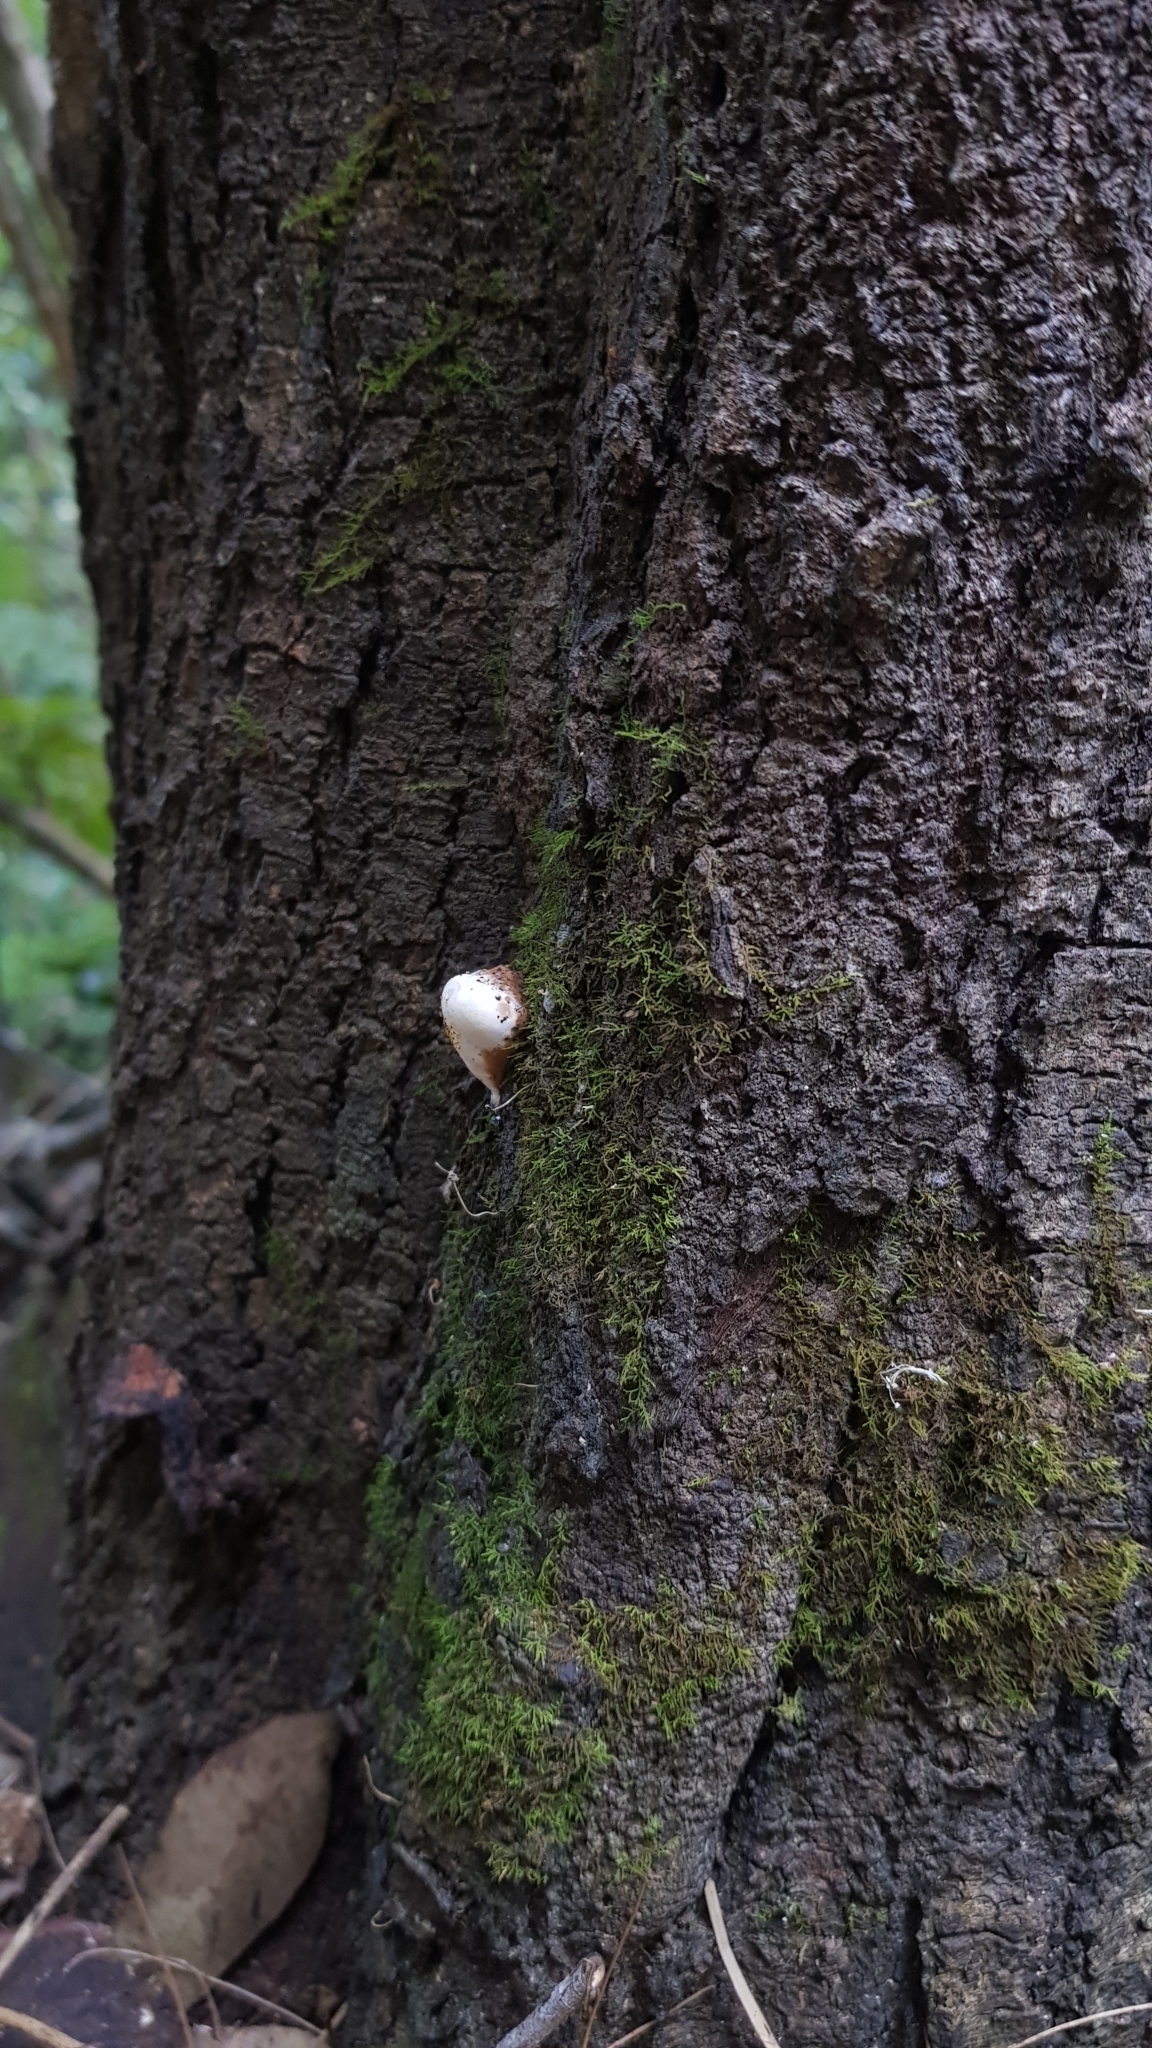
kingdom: Fungi
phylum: Basidiomycota
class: Agaricomycetes
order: Polyporales
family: Ganodermataceae
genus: Sanguinoderma
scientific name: Sanguinoderma rude
